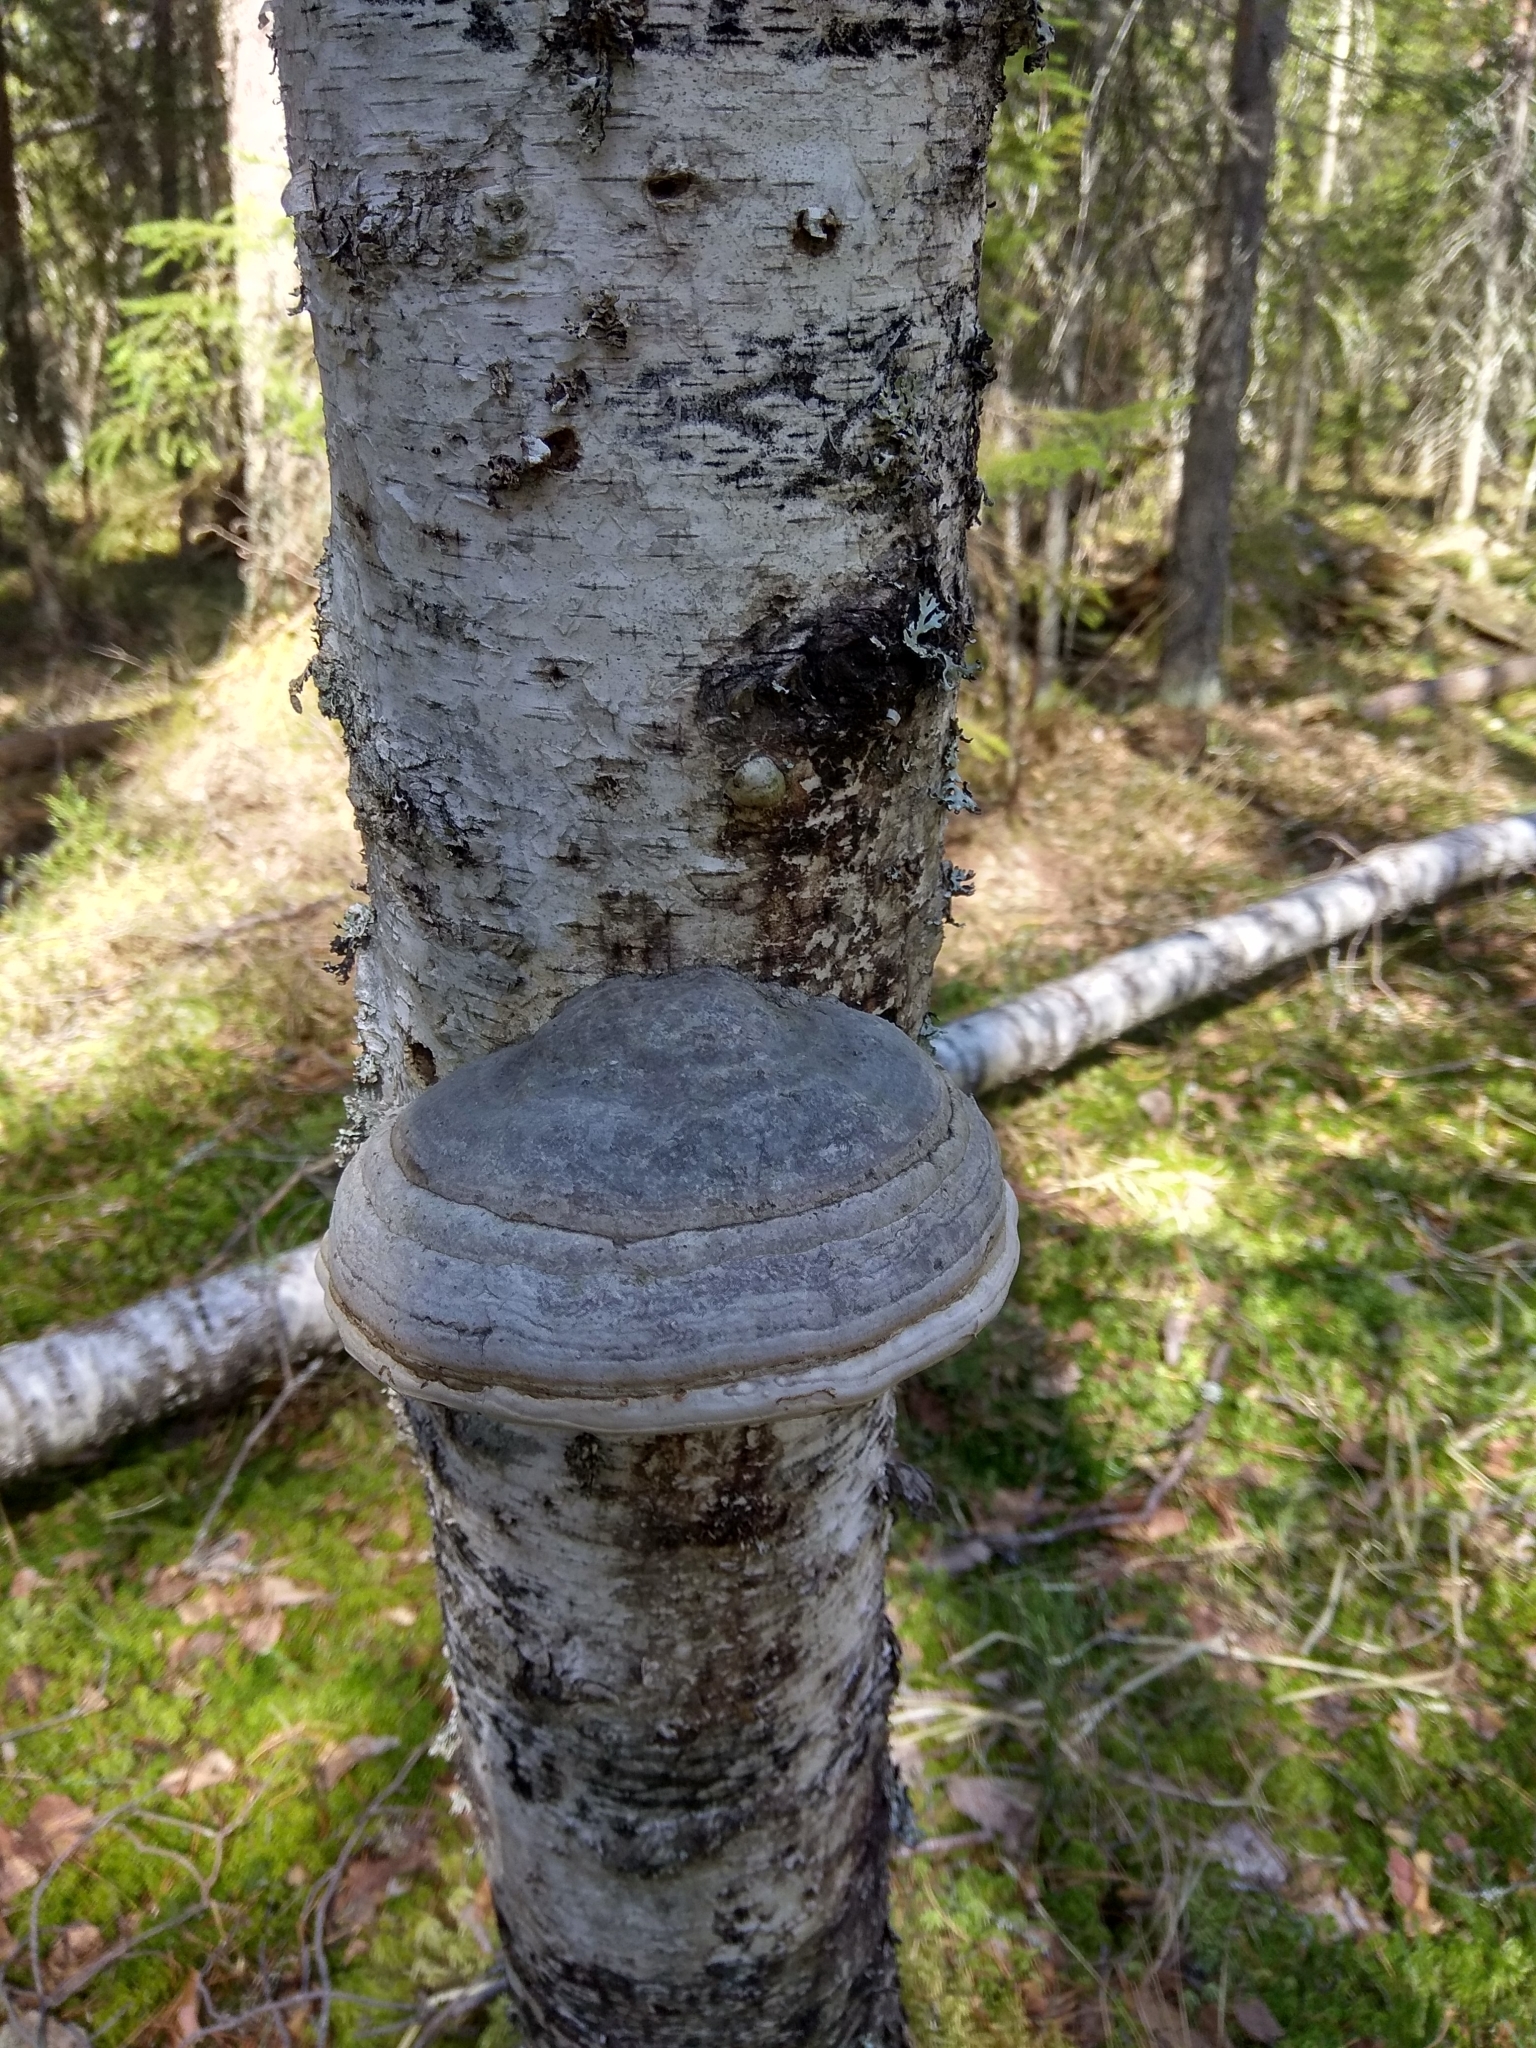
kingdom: Fungi
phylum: Basidiomycota
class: Agaricomycetes
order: Polyporales
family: Polyporaceae
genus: Fomes
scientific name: Fomes fomentarius
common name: Hoof fungus
